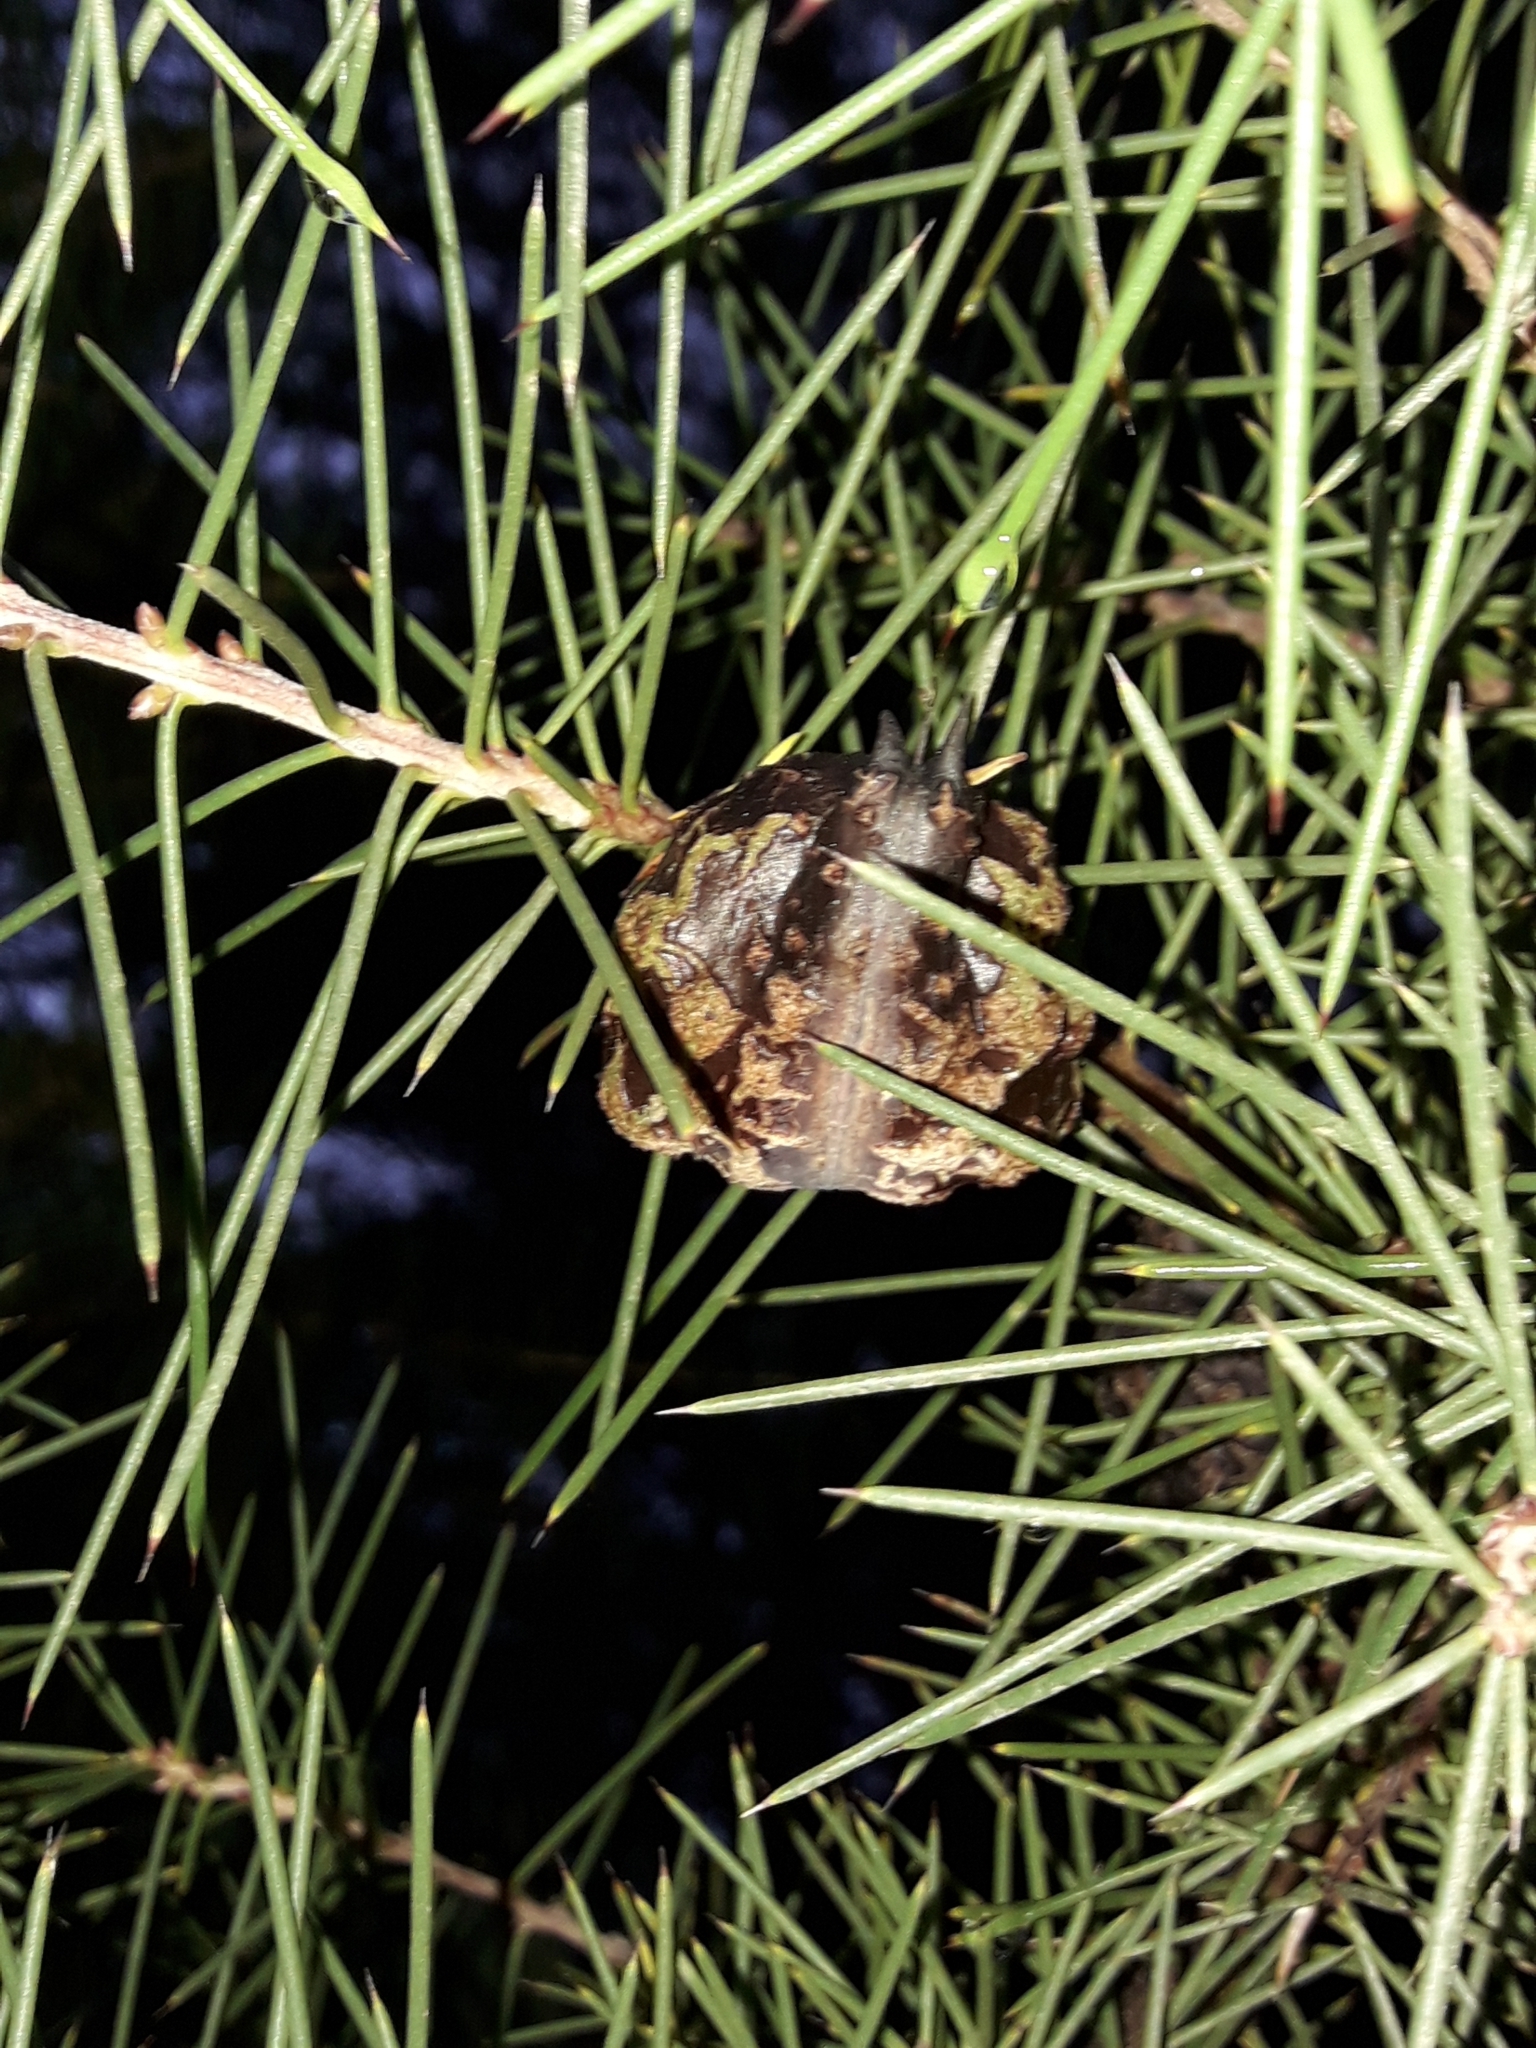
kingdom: Plantae
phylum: Tracheophyta
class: Magnoliopsida
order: Proteales
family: Proteaceae
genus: Hakea
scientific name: Hakea sericea
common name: Needle bush
